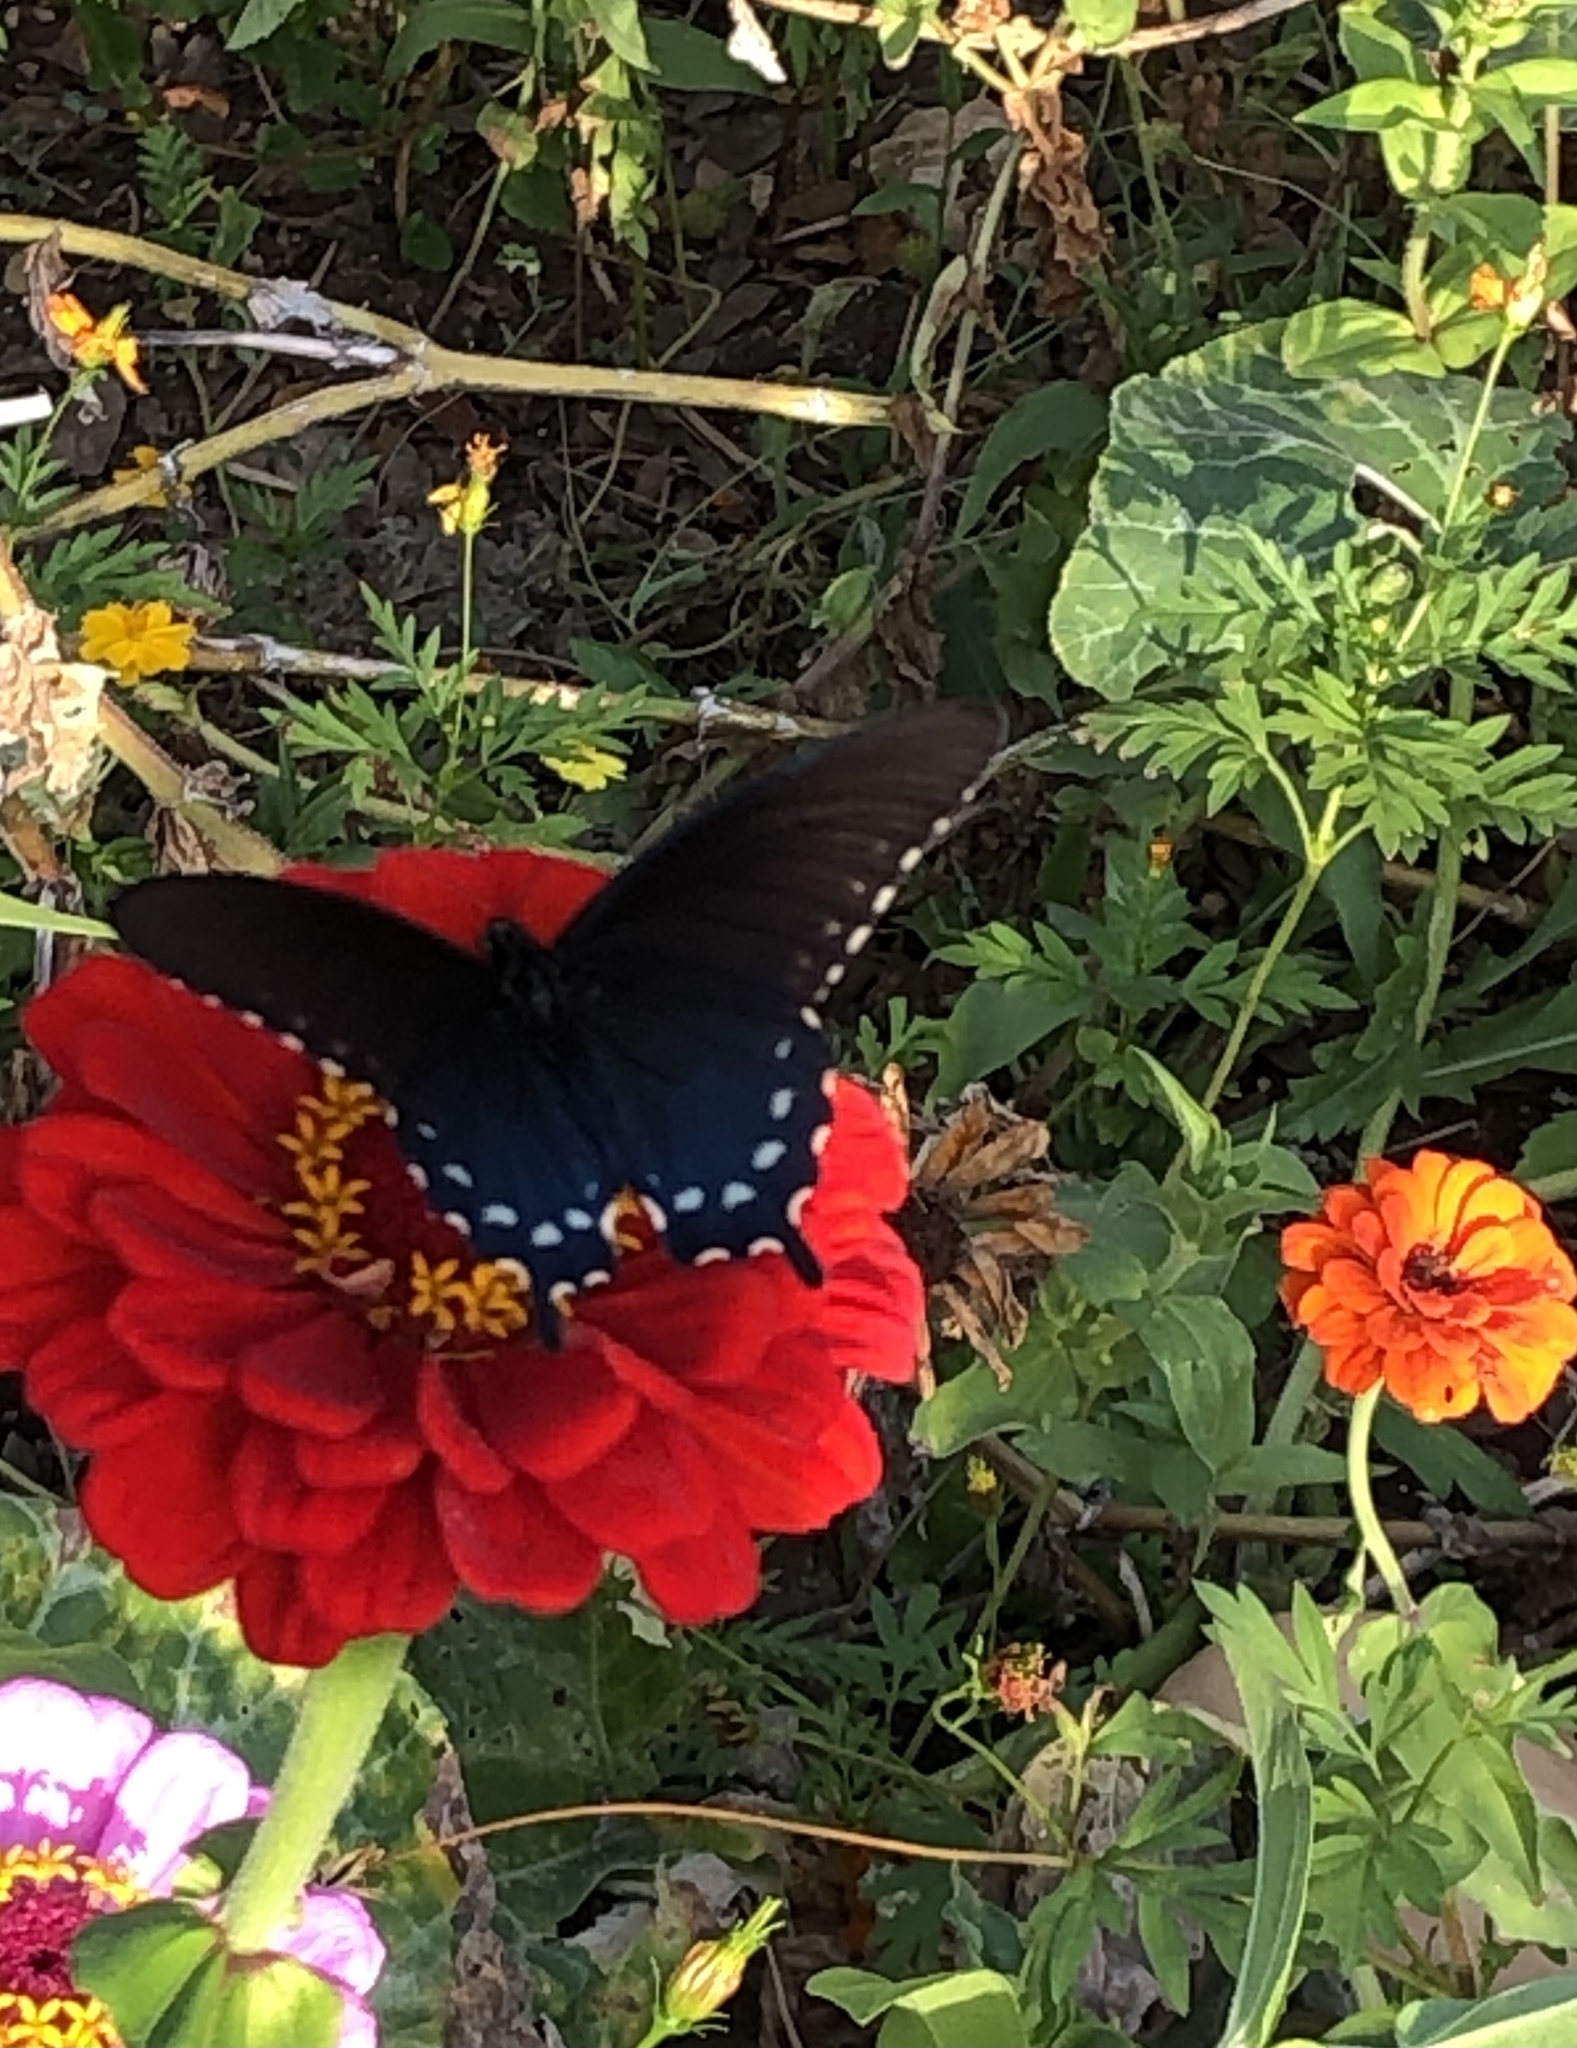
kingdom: Animalia
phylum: Arthropoda
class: Insecta
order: Lepidoptera
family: Papilionidae
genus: Battus
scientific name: Battus philenor
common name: Pipevine swallowtail
